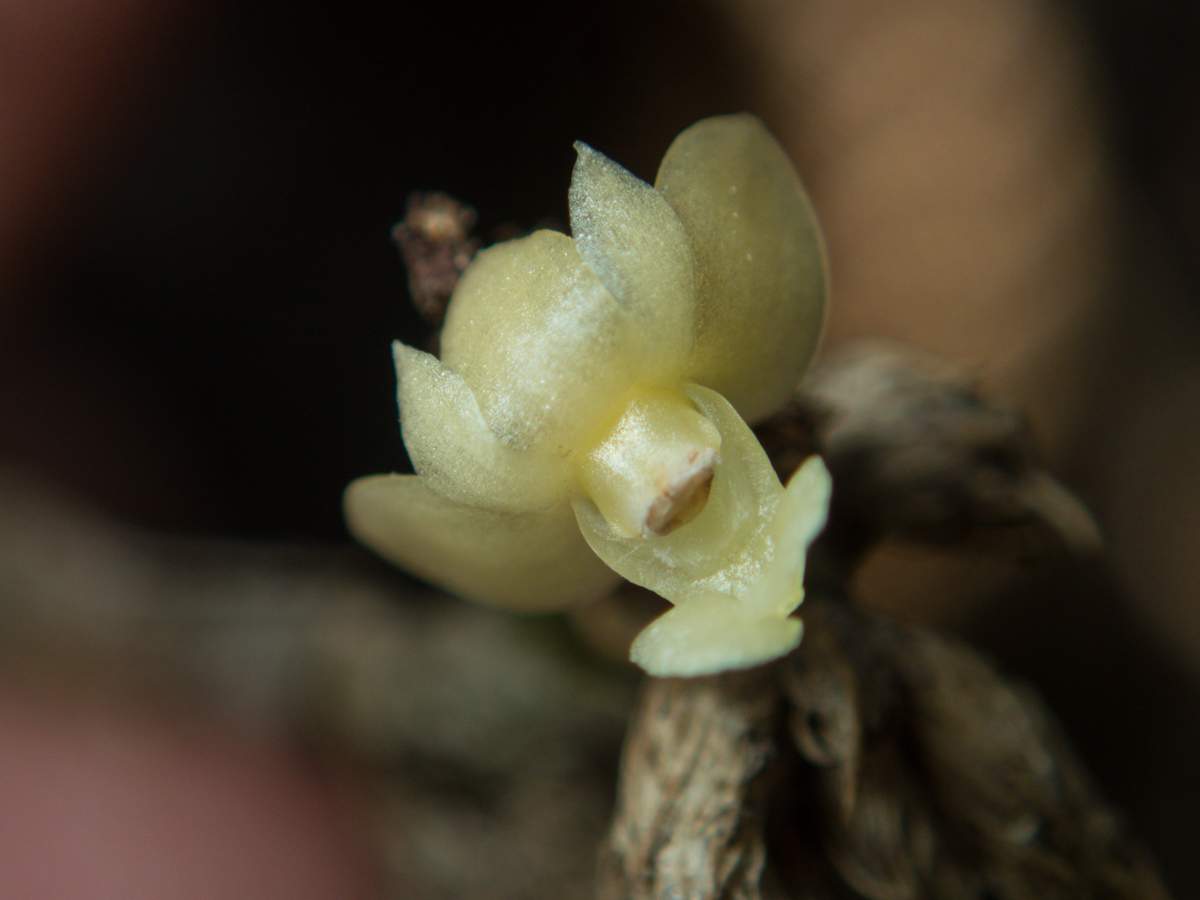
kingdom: Plantae
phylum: Tracheophyta
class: Liliopsida
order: Asparagales
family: Orchidaceae
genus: Dendrobium
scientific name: Dendrobium aloifolium
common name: Aloe-like dendrobium
